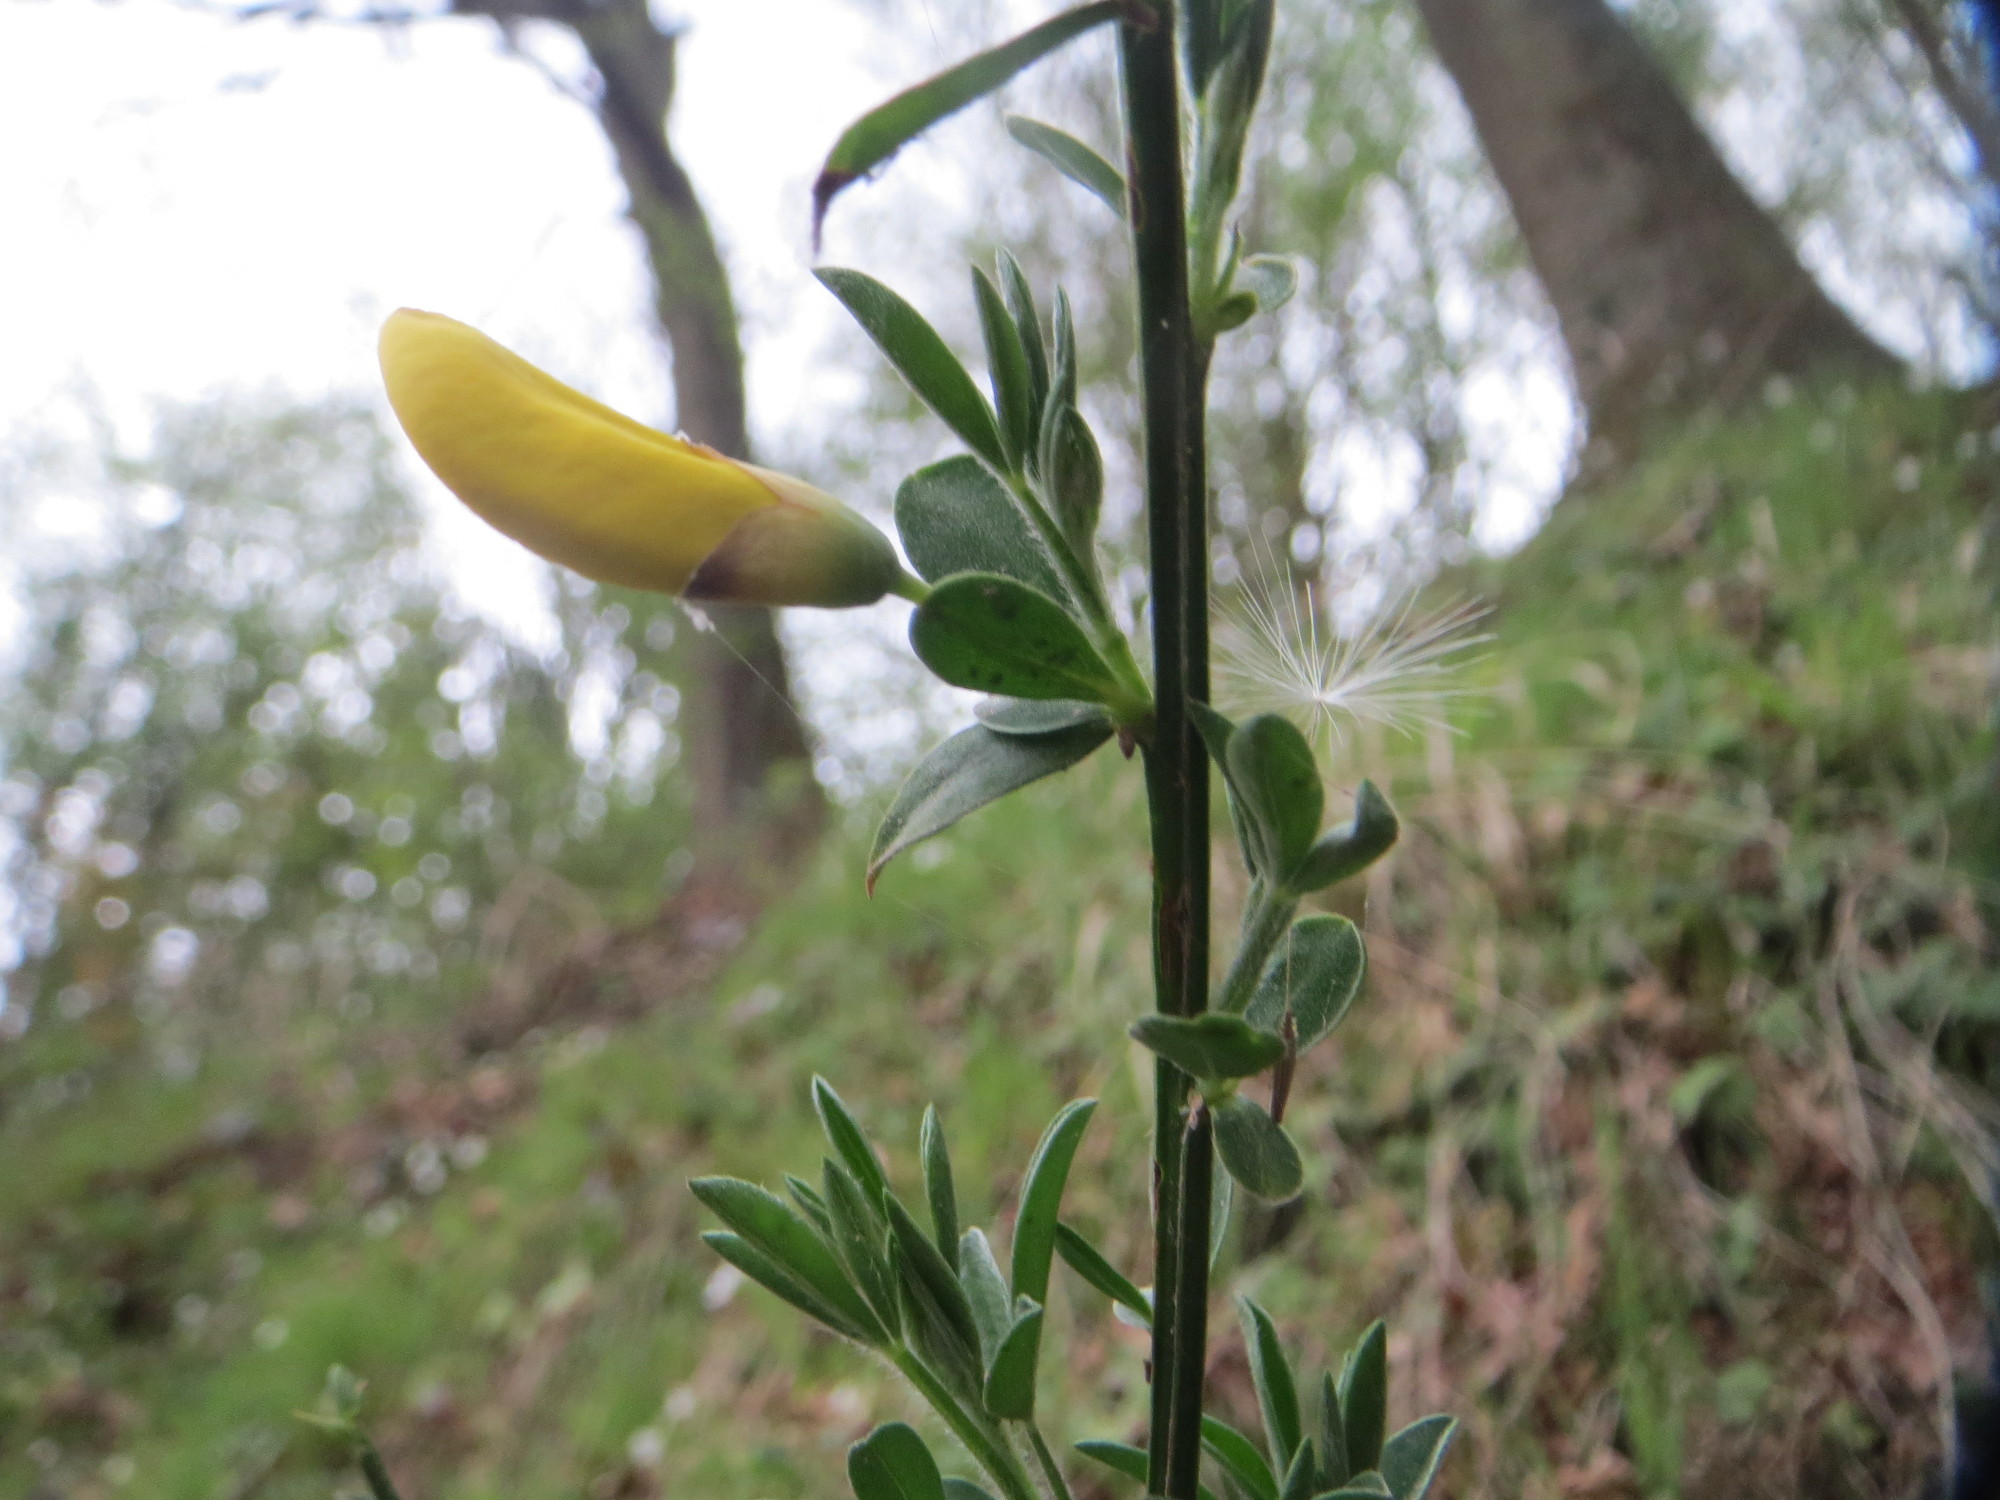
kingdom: Plantae
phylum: Tracheophyta
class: Magnoliopsida
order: Fabales
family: Fabaceae
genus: Cytisus
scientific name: Cytisus scoparius
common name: Scotch broom
